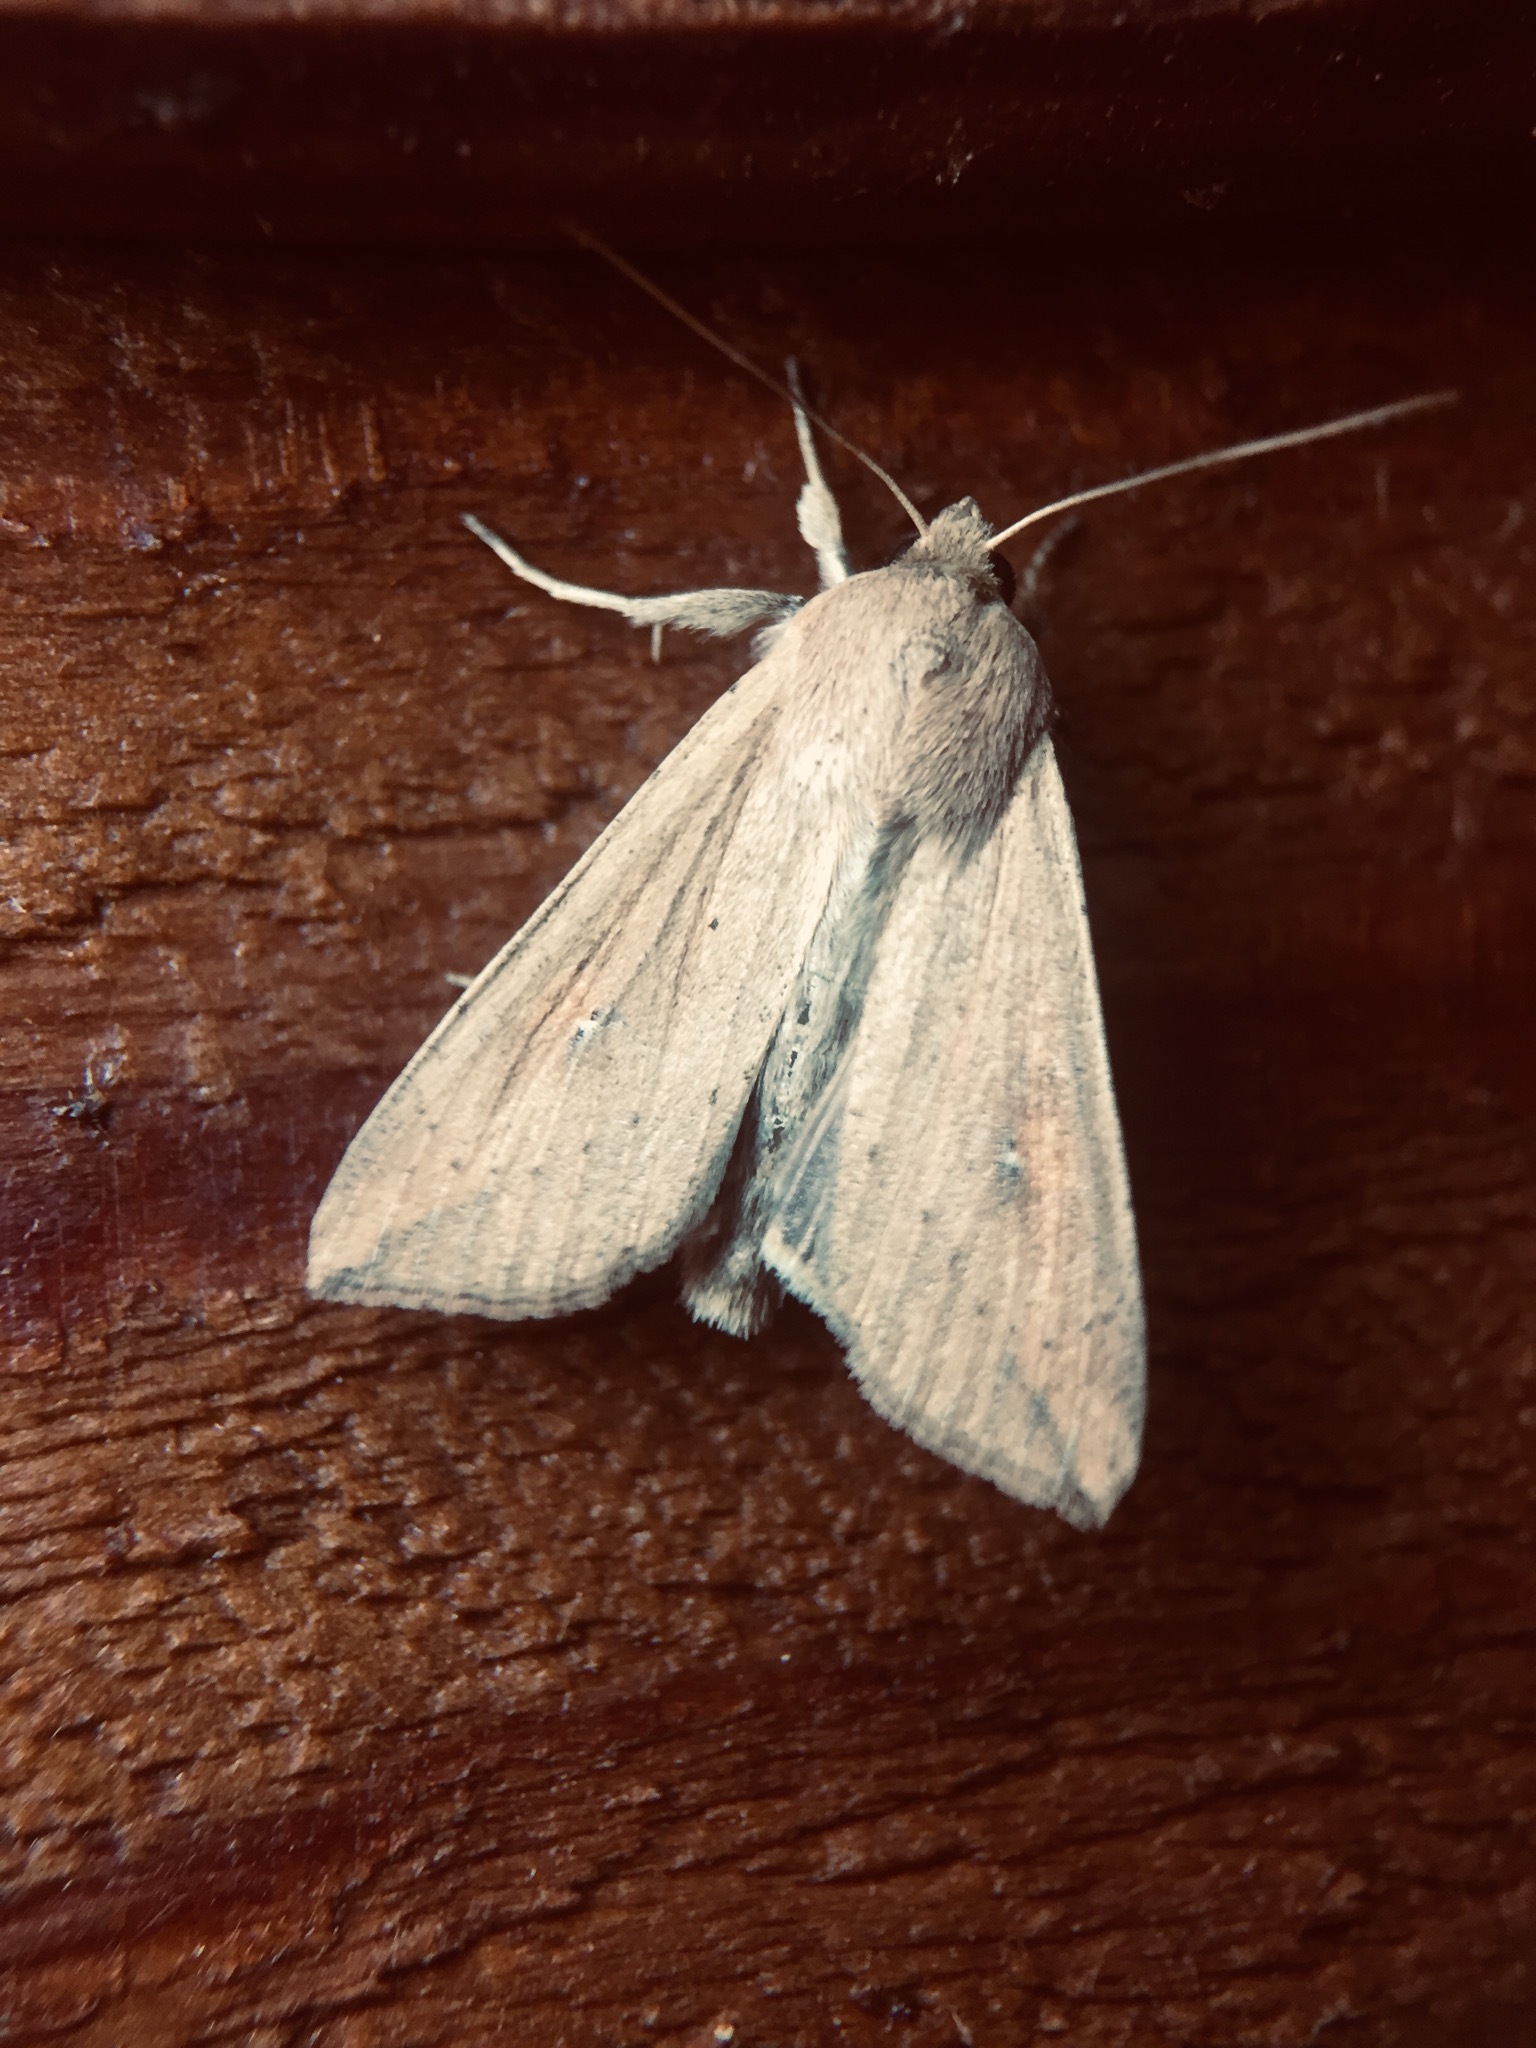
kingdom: Animalia
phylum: Arthropoda
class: Insecta
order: Lepidoptera
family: Noctuidae
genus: Mythimna
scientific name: Mythimna separata
